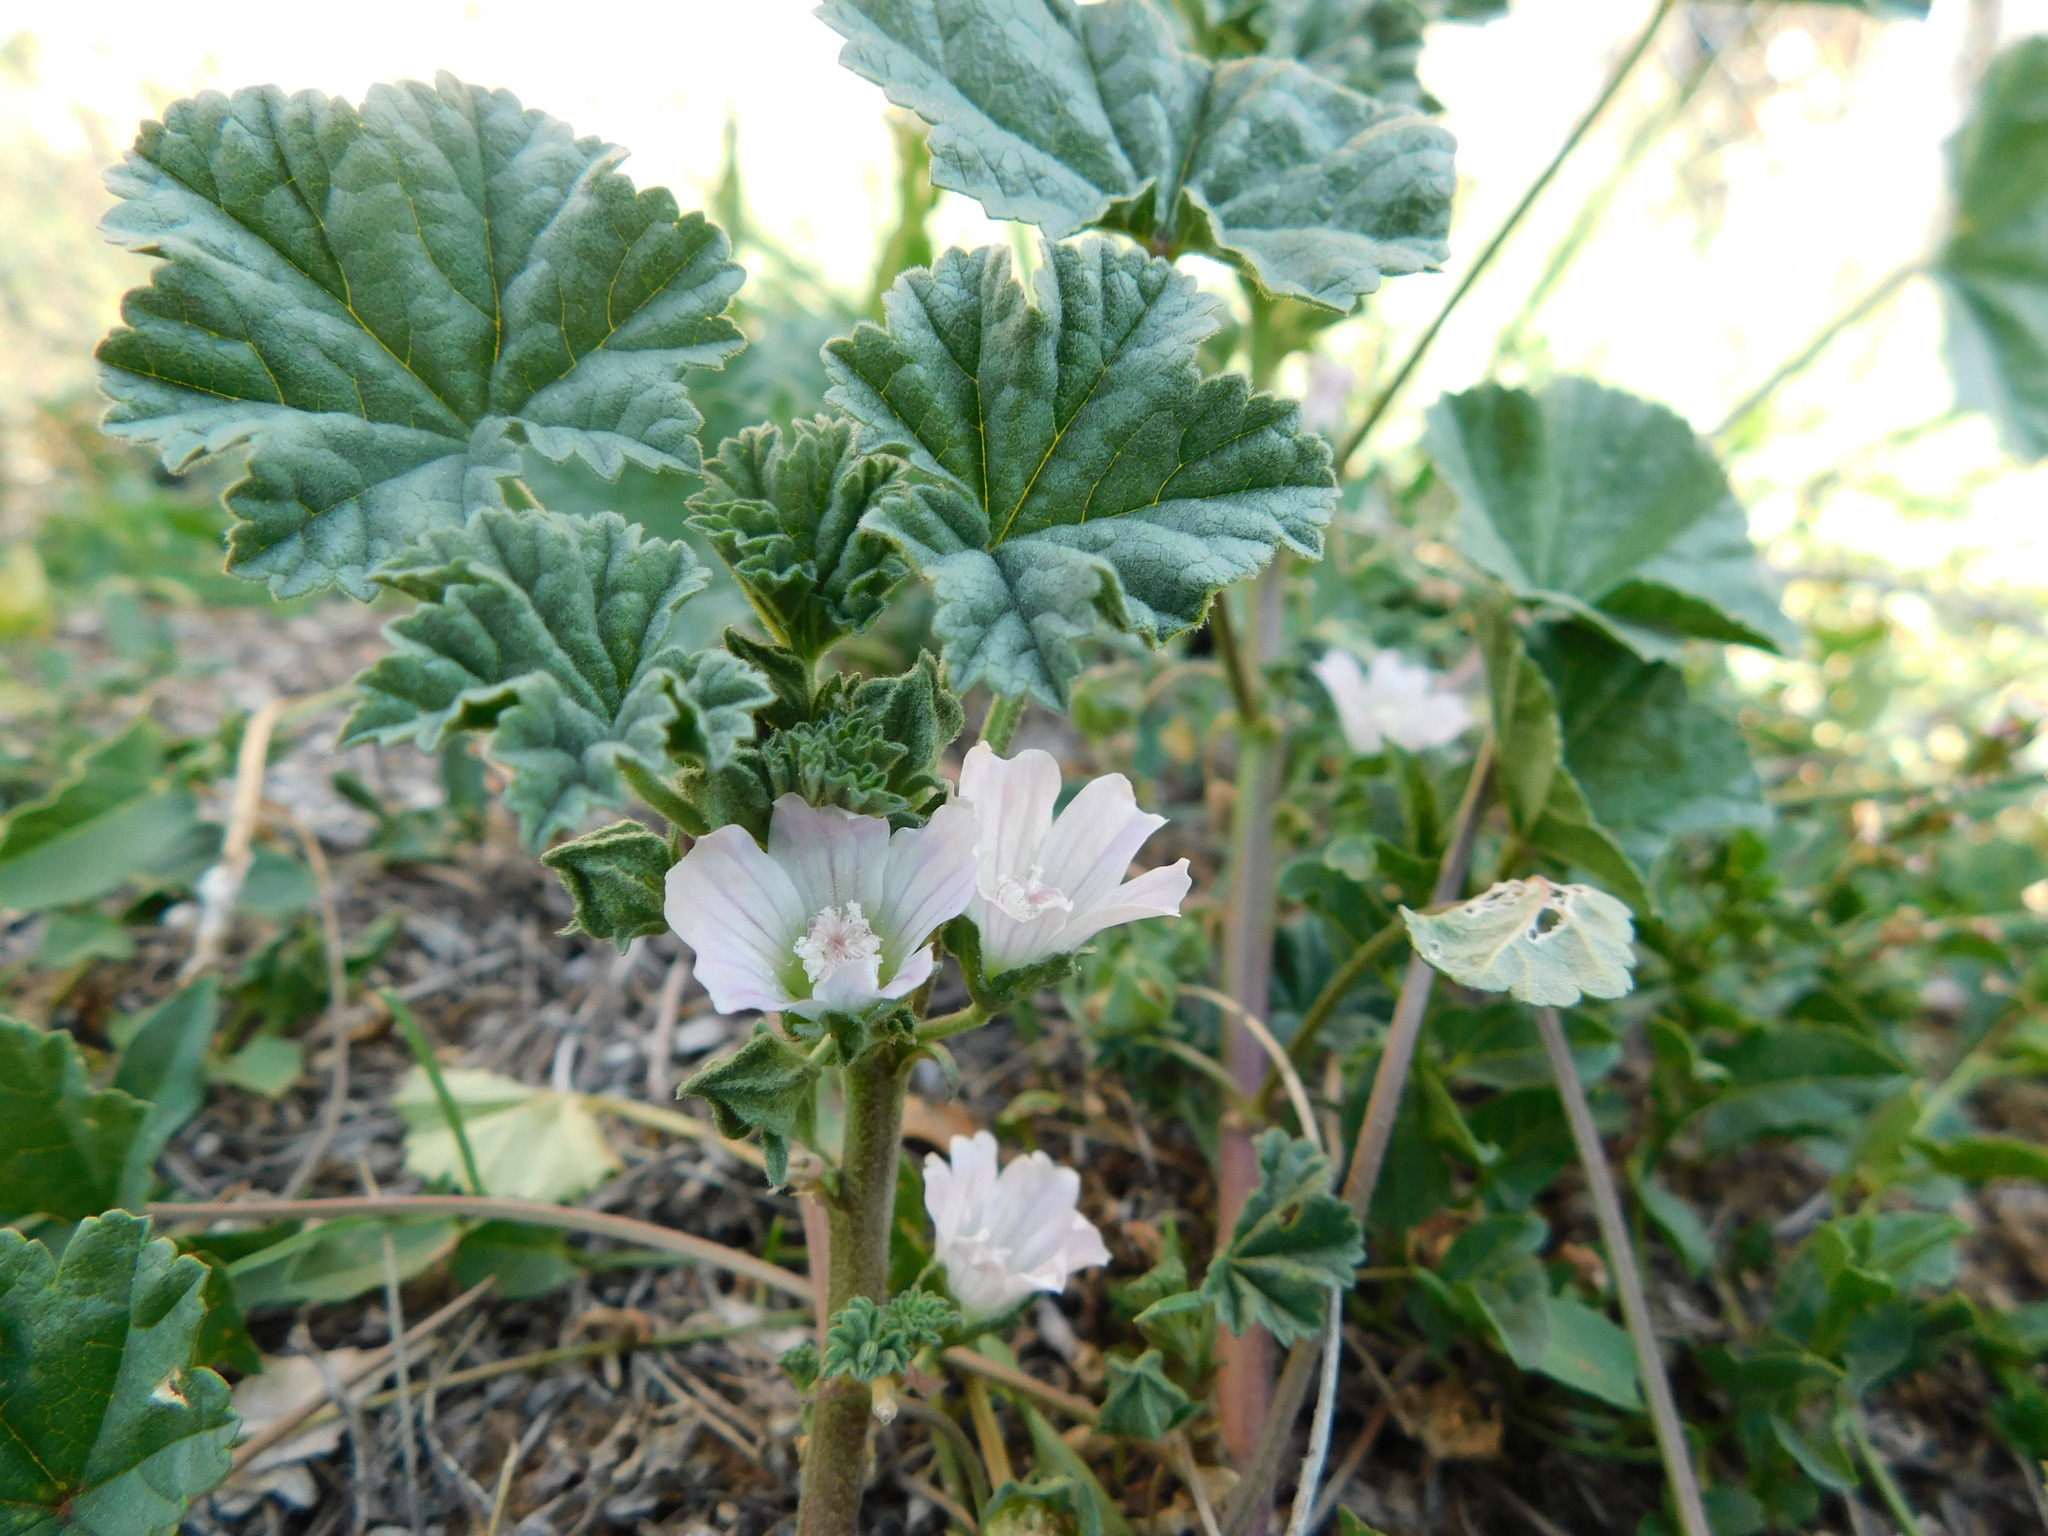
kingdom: Plantae
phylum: Tracheophyta
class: Magnoliopsida
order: Malvales
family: Malvaceae
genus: Malva
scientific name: Malva neglecta
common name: Common mallow
